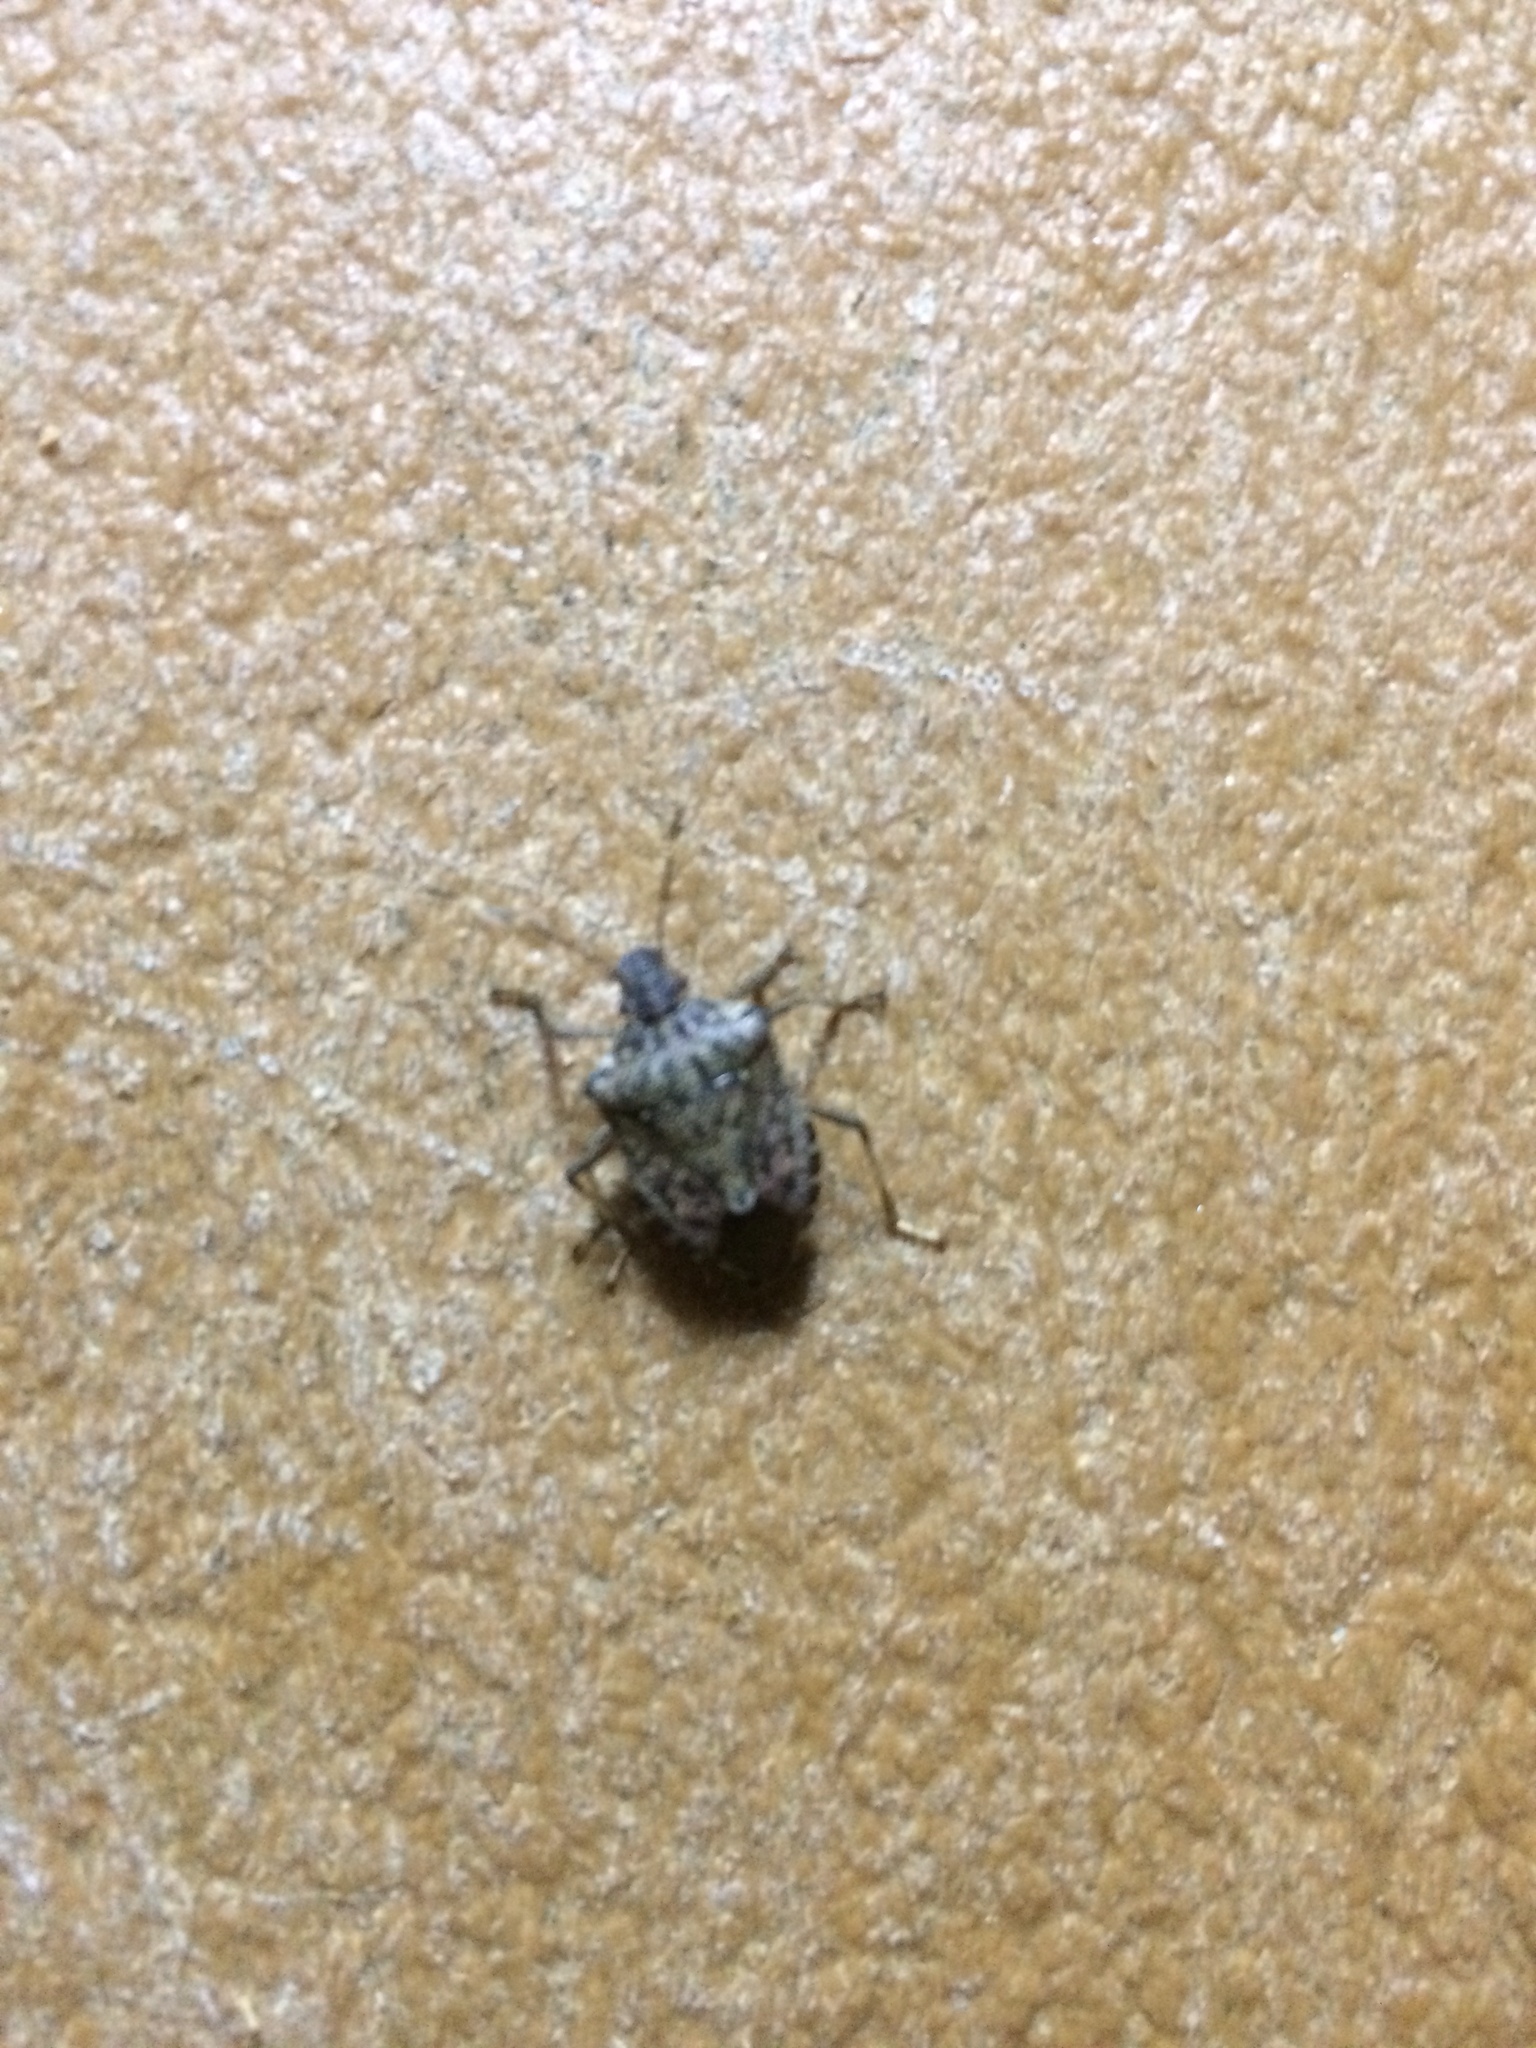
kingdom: Animalia
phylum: Arthropoda
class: Insecta
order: Hemiptera
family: Pentatomidae
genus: Halyomorpha
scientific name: Halyomorpha halys
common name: Brown marmorated stink bug
